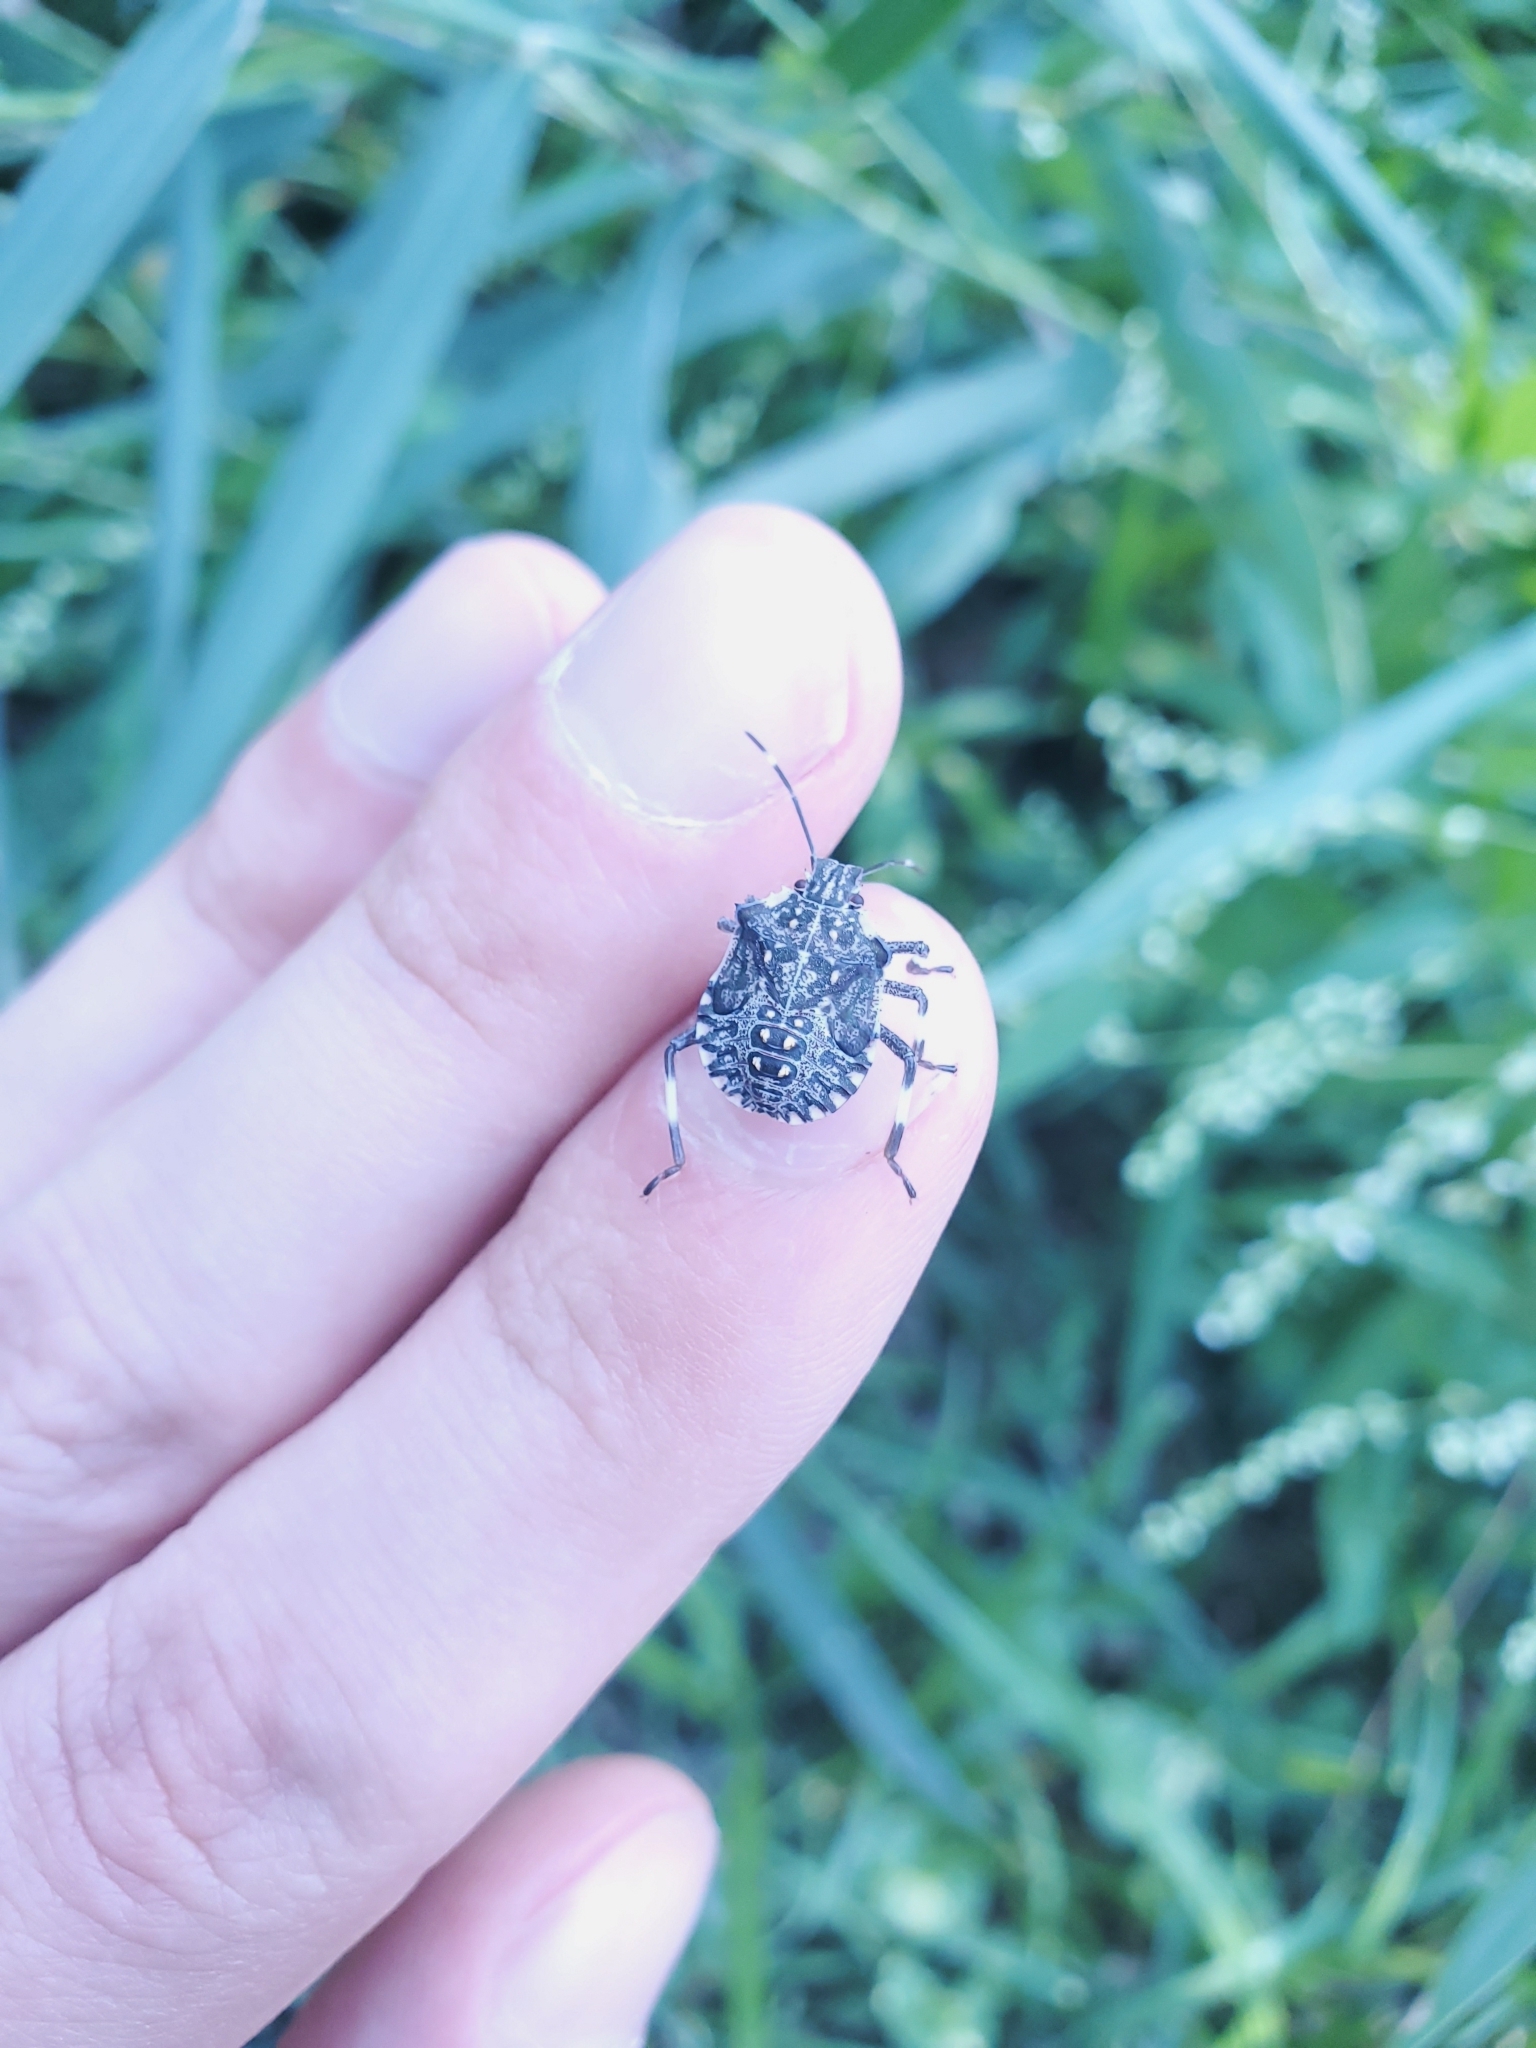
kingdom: Animalia
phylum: Arthropoda
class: Insecta
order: Hemiptera
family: Pentatomidae
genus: Halyomorpha
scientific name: Halyomorpha halys
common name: Brown marmorated stink bug
